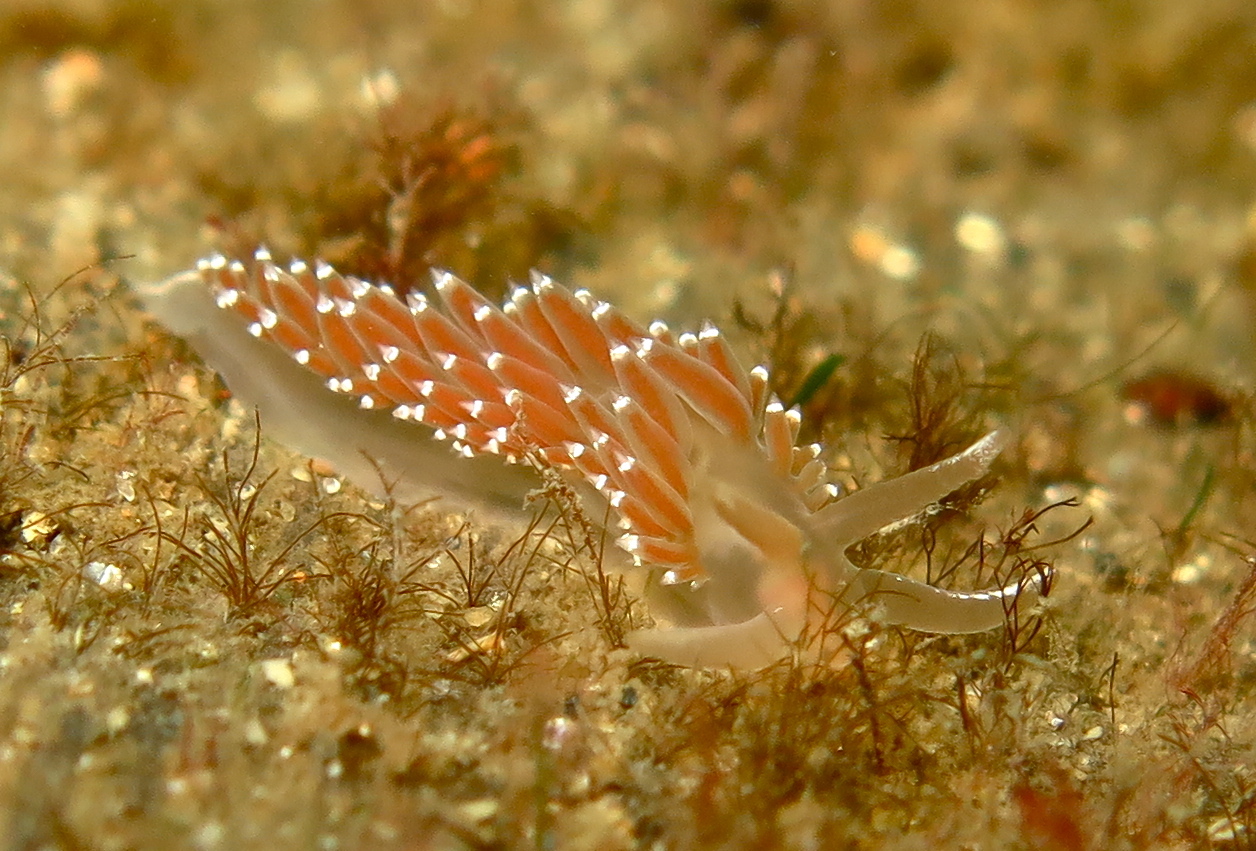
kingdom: Animalia
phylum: Mollusca
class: Gastropoda
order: Nudibranchia
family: Coryphellidae
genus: Coryphella
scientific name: Coryphella verrucosa
